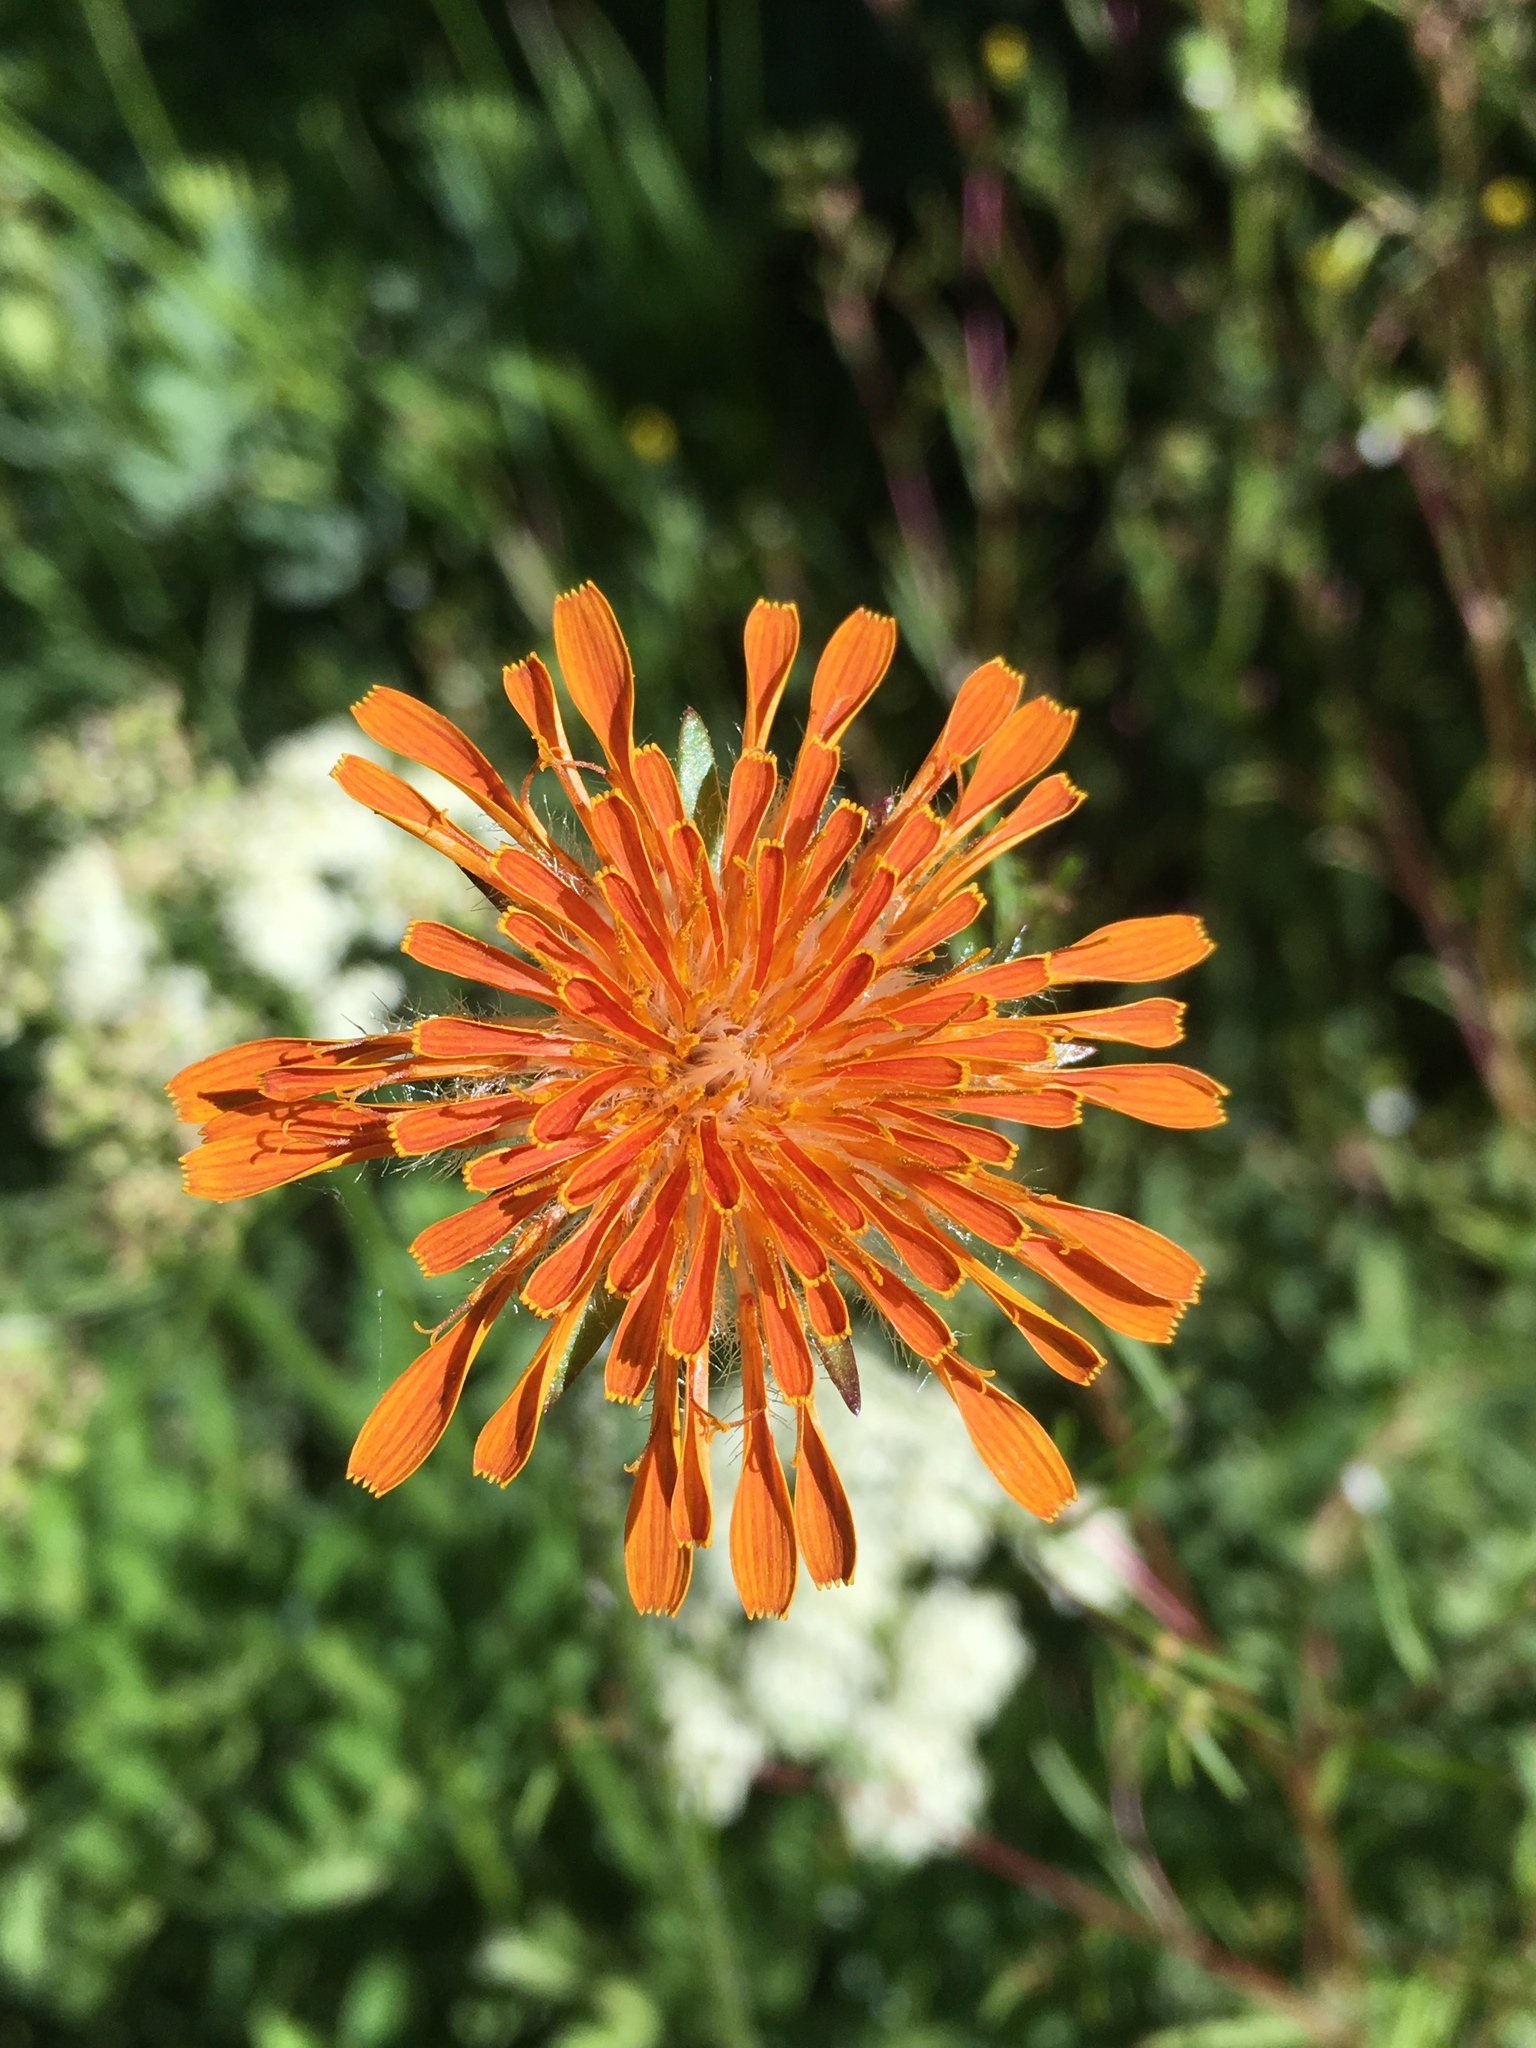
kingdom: Plantae
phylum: Tracheophyta
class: Magnoliopsida
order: Asterales
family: Asteraceae
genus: Agoseris
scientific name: Agoseris aurantiaca
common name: Mountain agoseris
